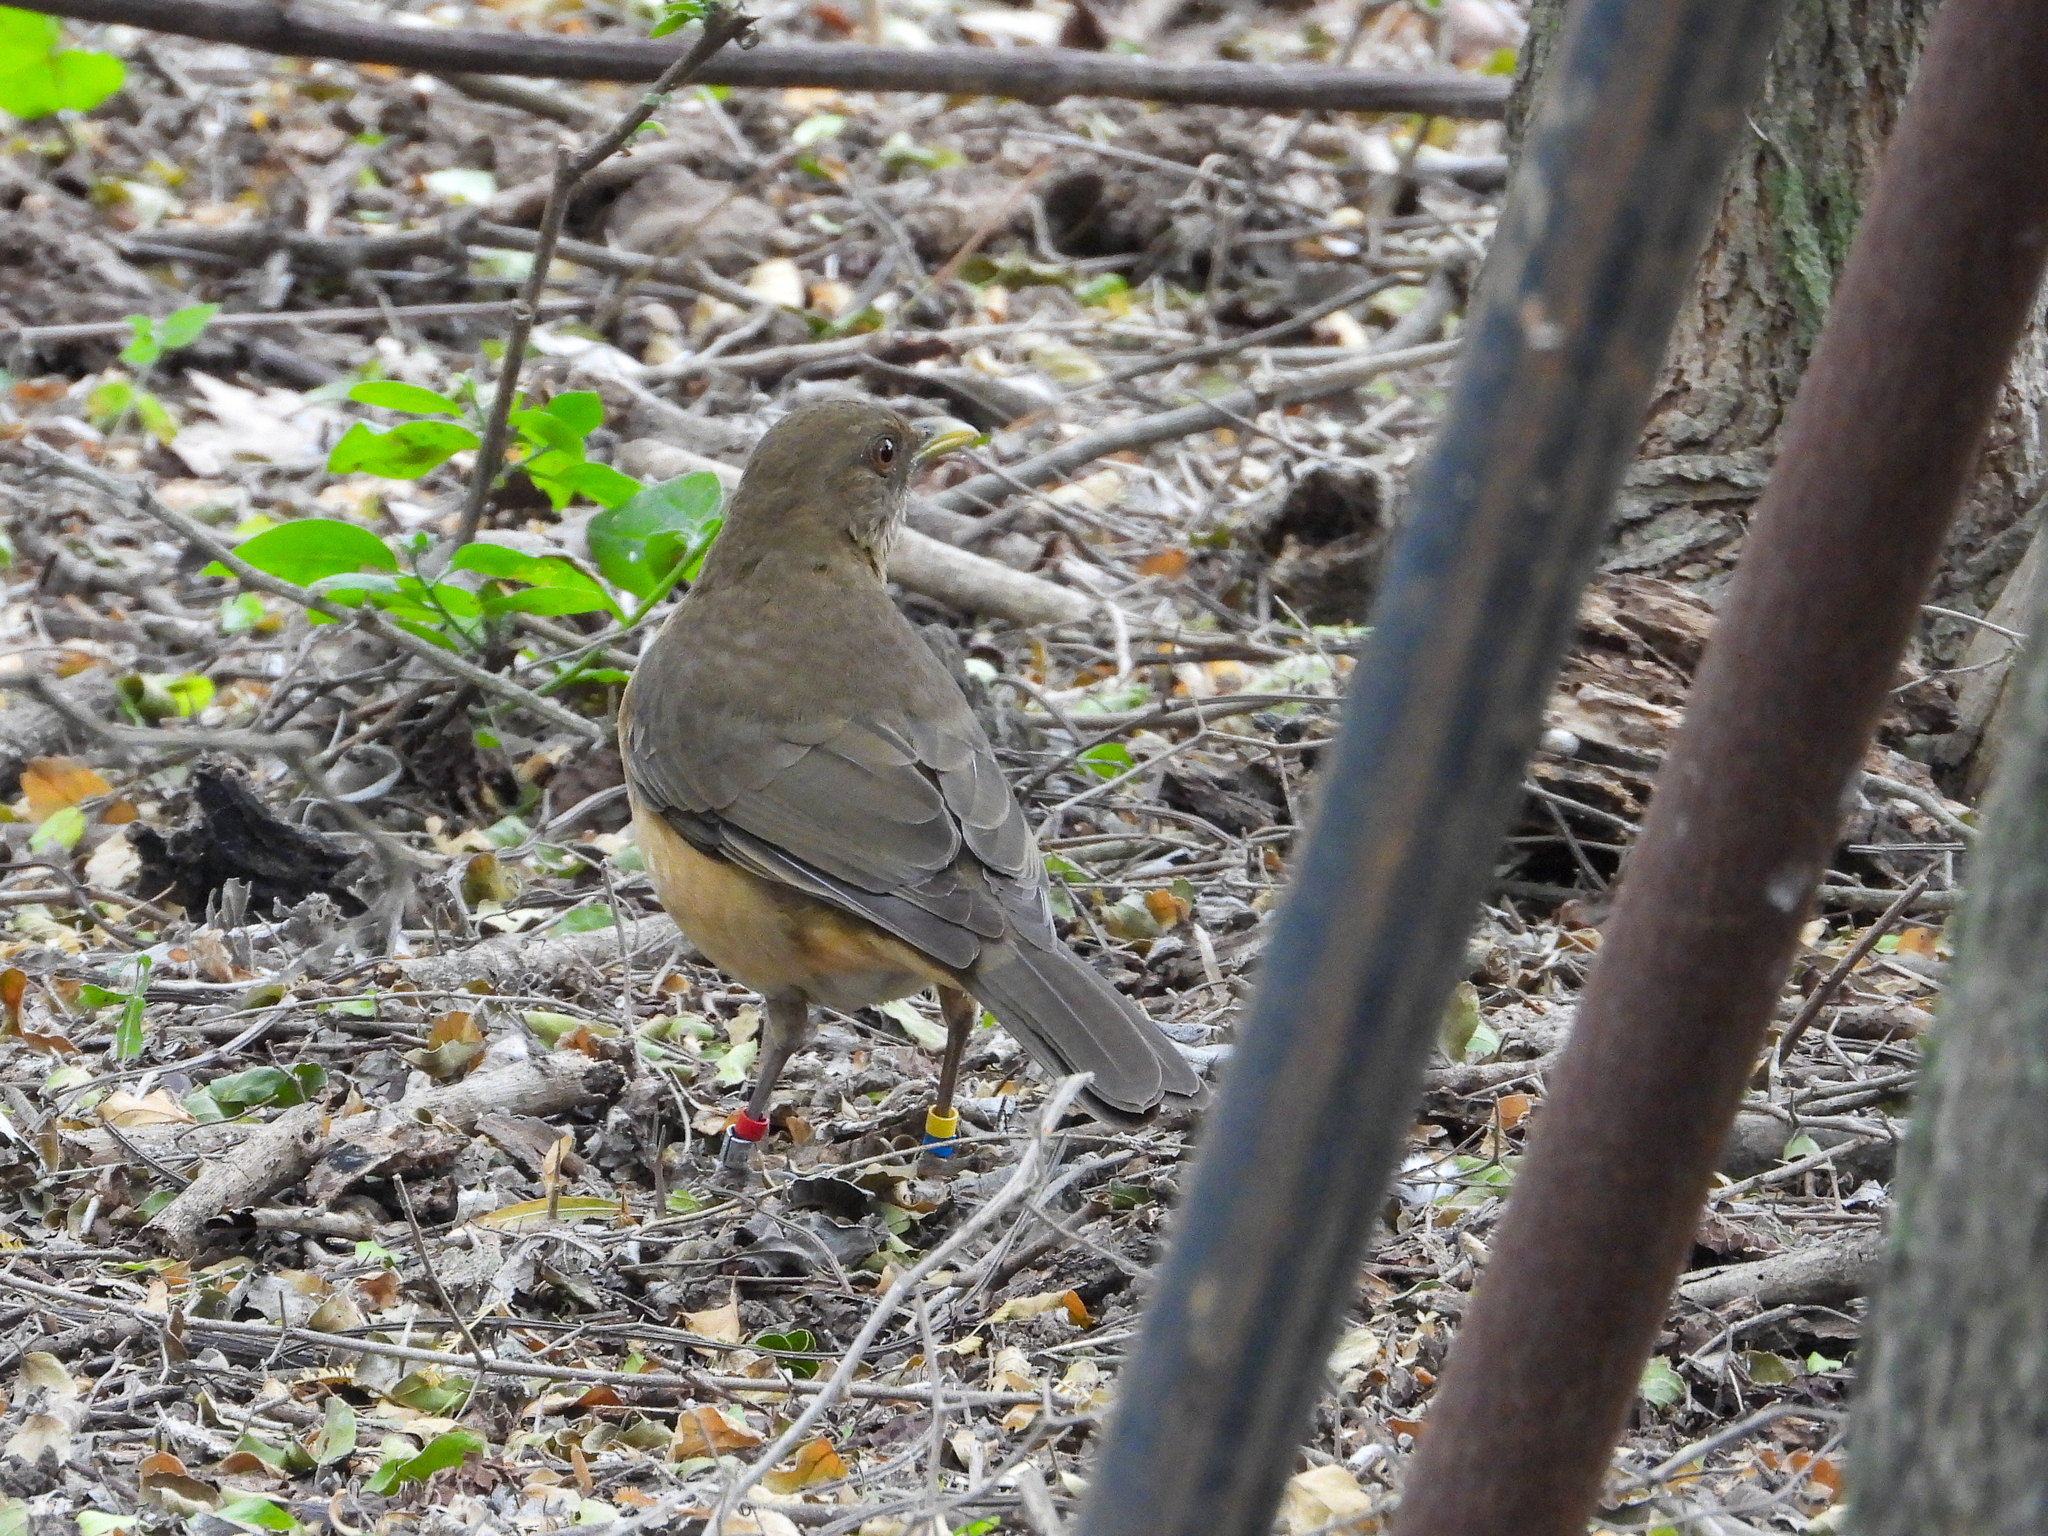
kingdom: Animalia
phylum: Chordata
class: Aves
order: Passeriformes
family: Turdidae
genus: Turdus
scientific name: Turdus grayi
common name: Clay-colored thrush
